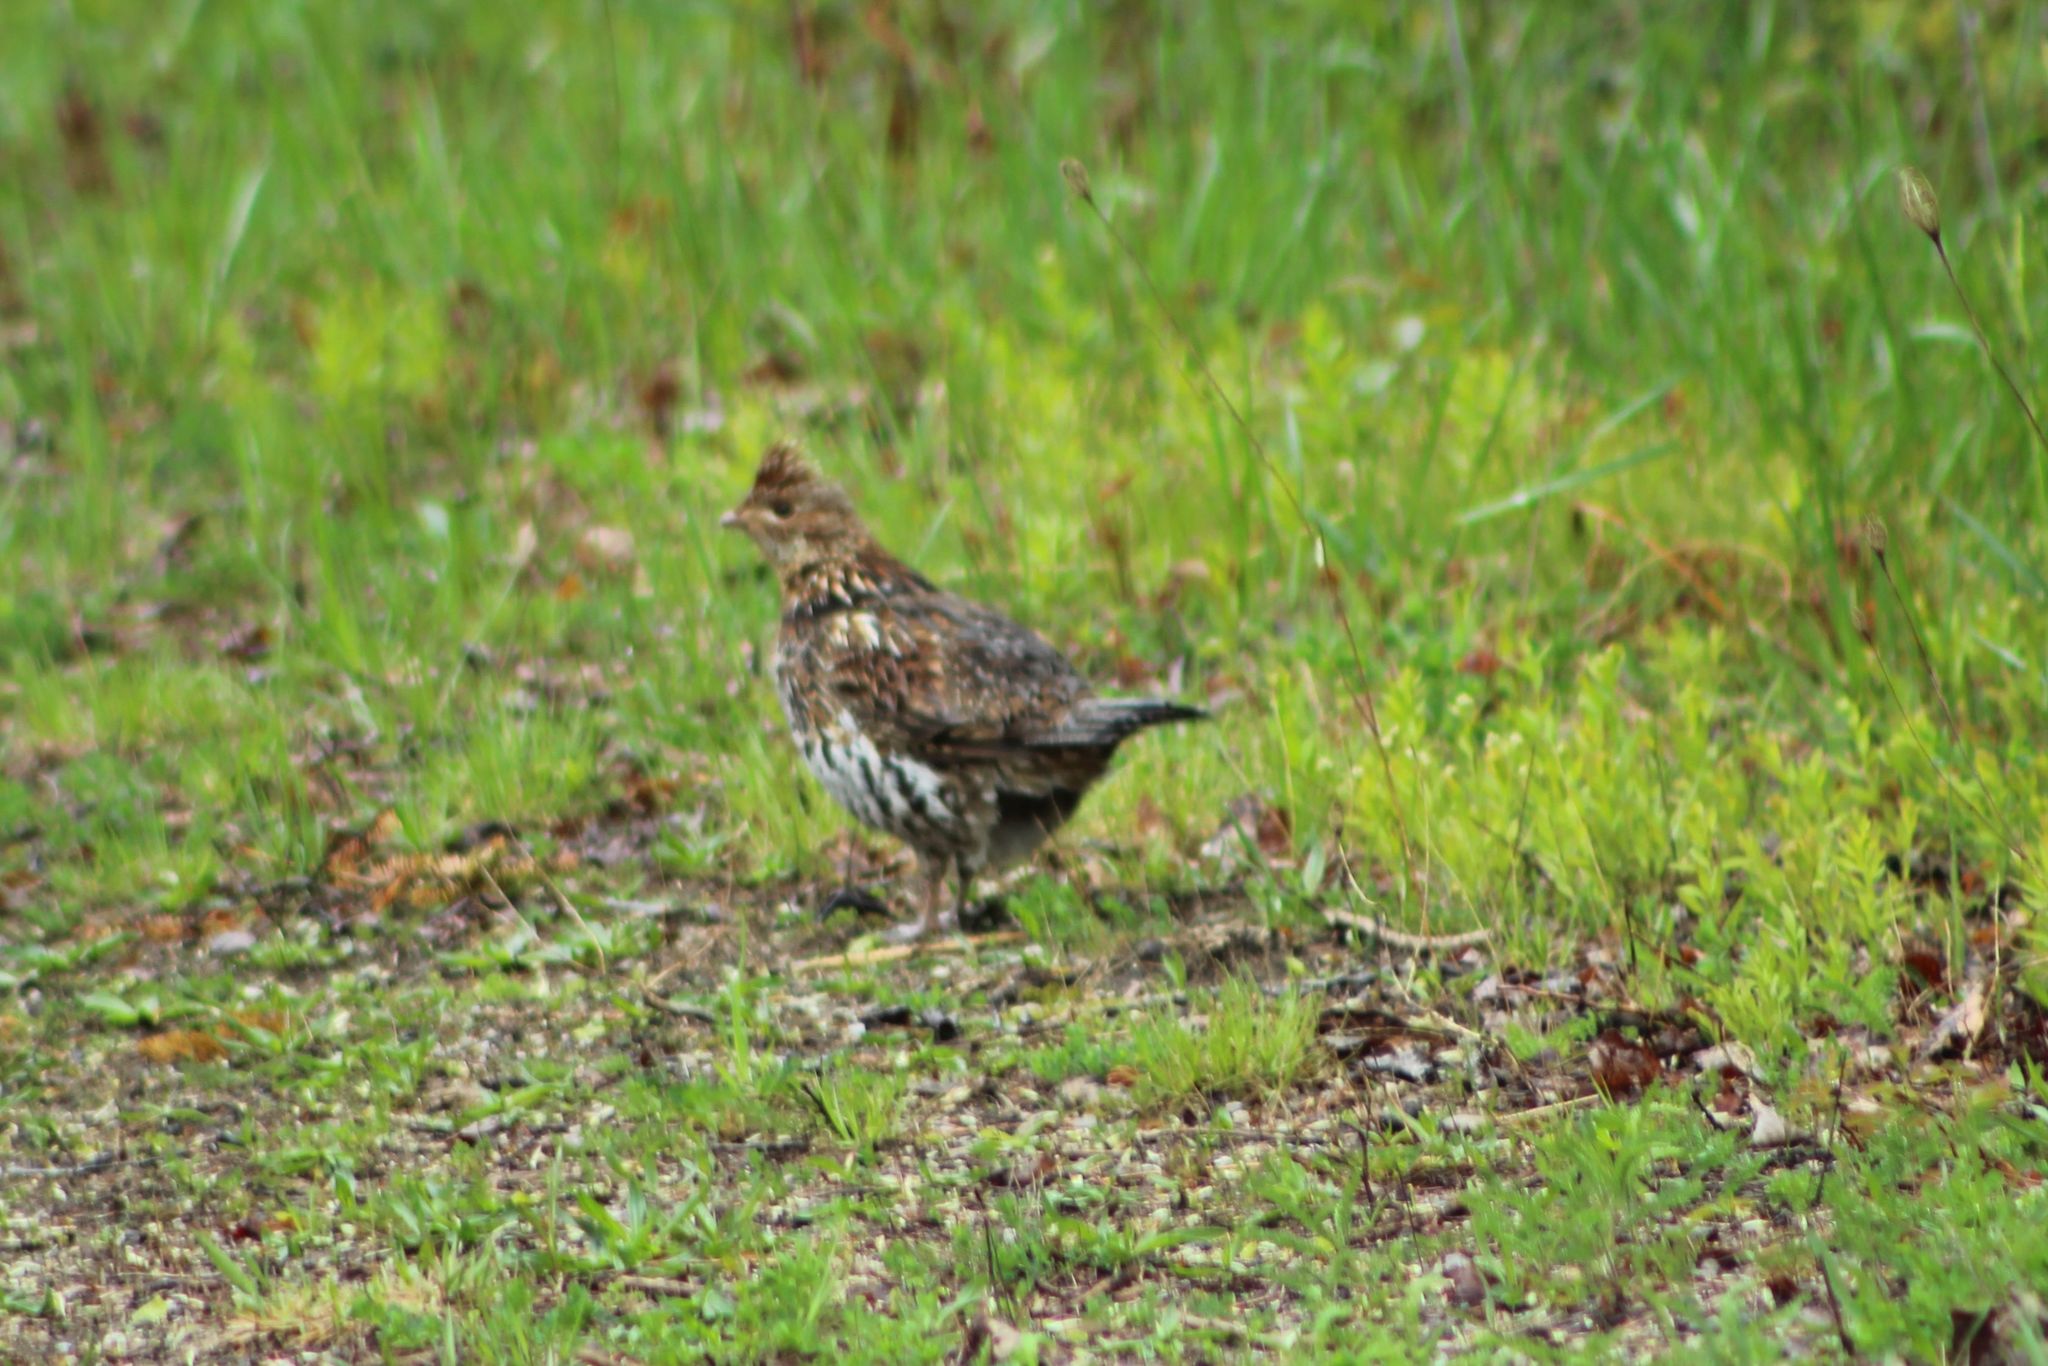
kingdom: Animalia
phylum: Chordata
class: Aves
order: Galliformes
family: Phasianidae
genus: Bonasa
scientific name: Bonasa umbellus
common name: Ruffed grouse
